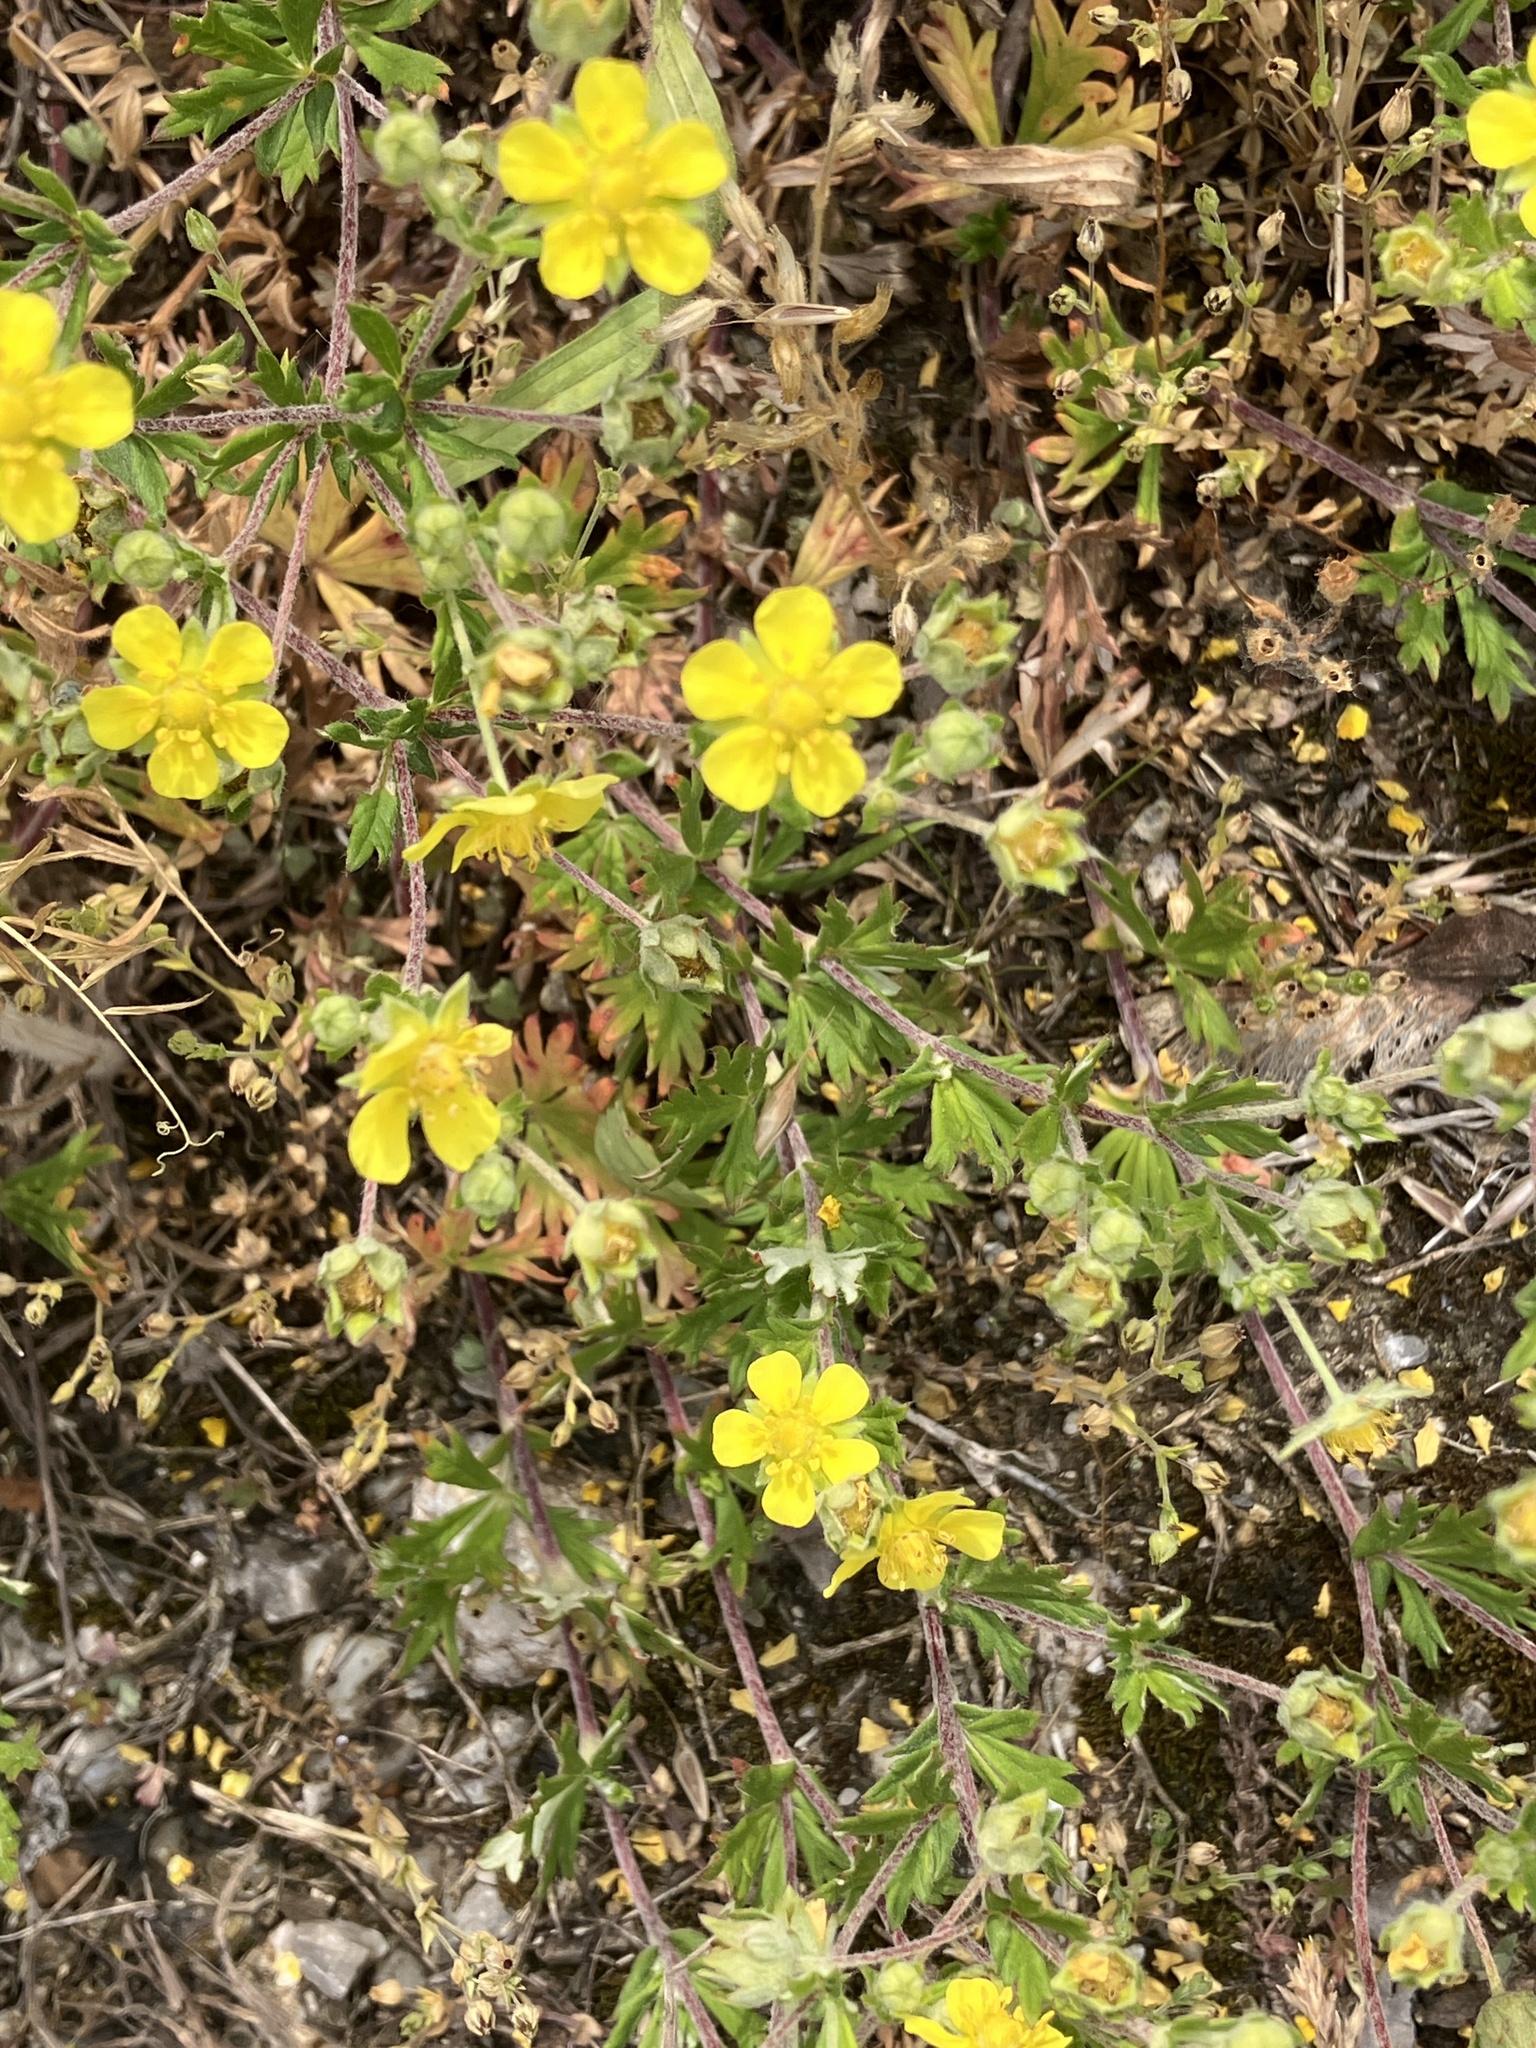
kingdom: Plantae
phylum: Tracheophyta
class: Magnoliopsida
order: Rosales
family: Rosaceae
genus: Potentilla
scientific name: Potentilla argentea
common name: Hoary cinquefoil
